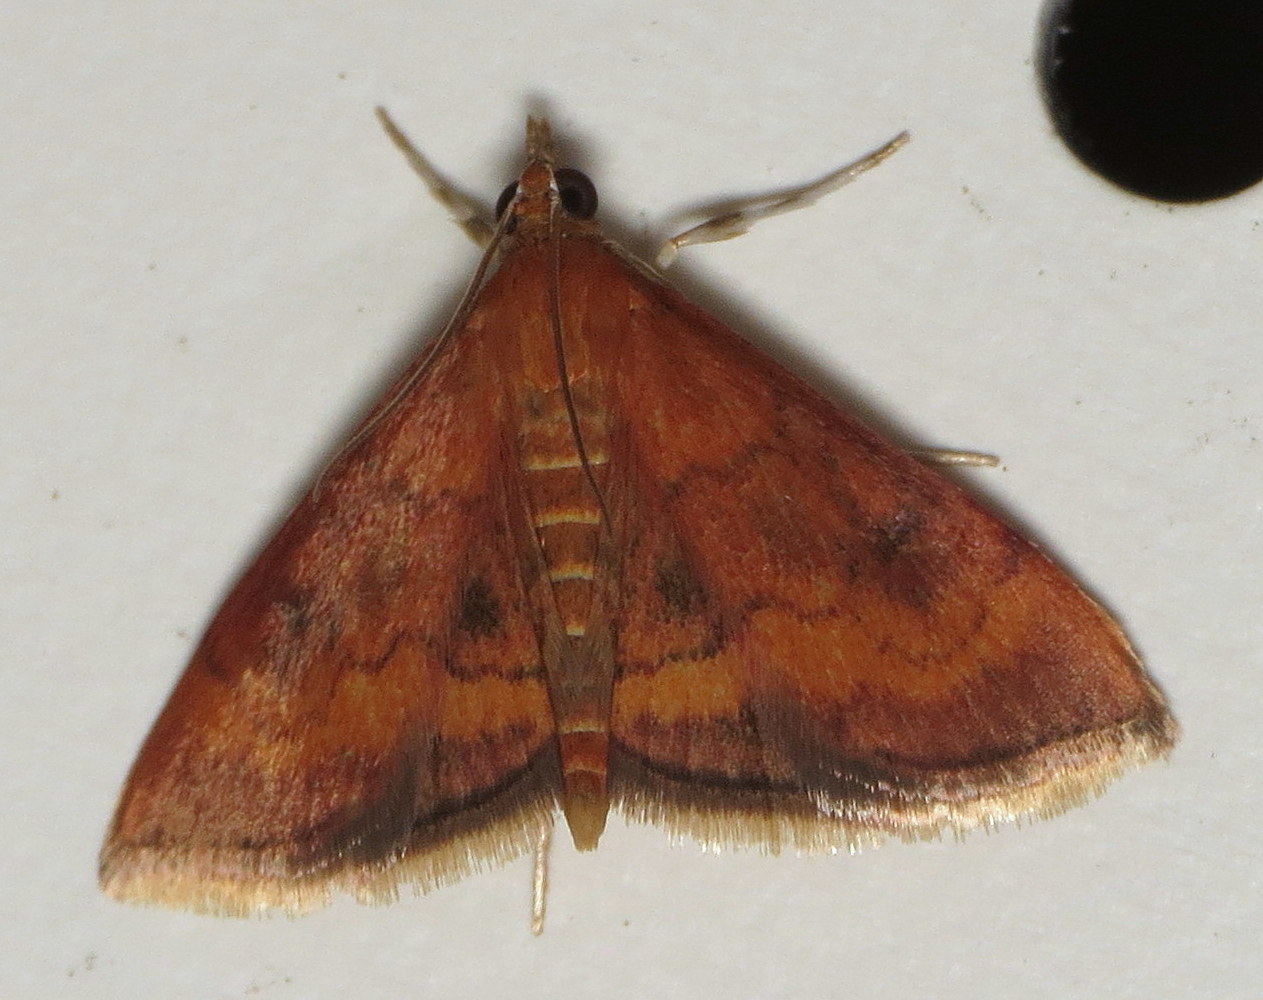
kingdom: Animalia
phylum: Arthropoda
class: Insecta
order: Lepidoptera
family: Crambidae
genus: Pyrausta
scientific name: Pyrausta rubricalis
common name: Variable reddish pyrausta
